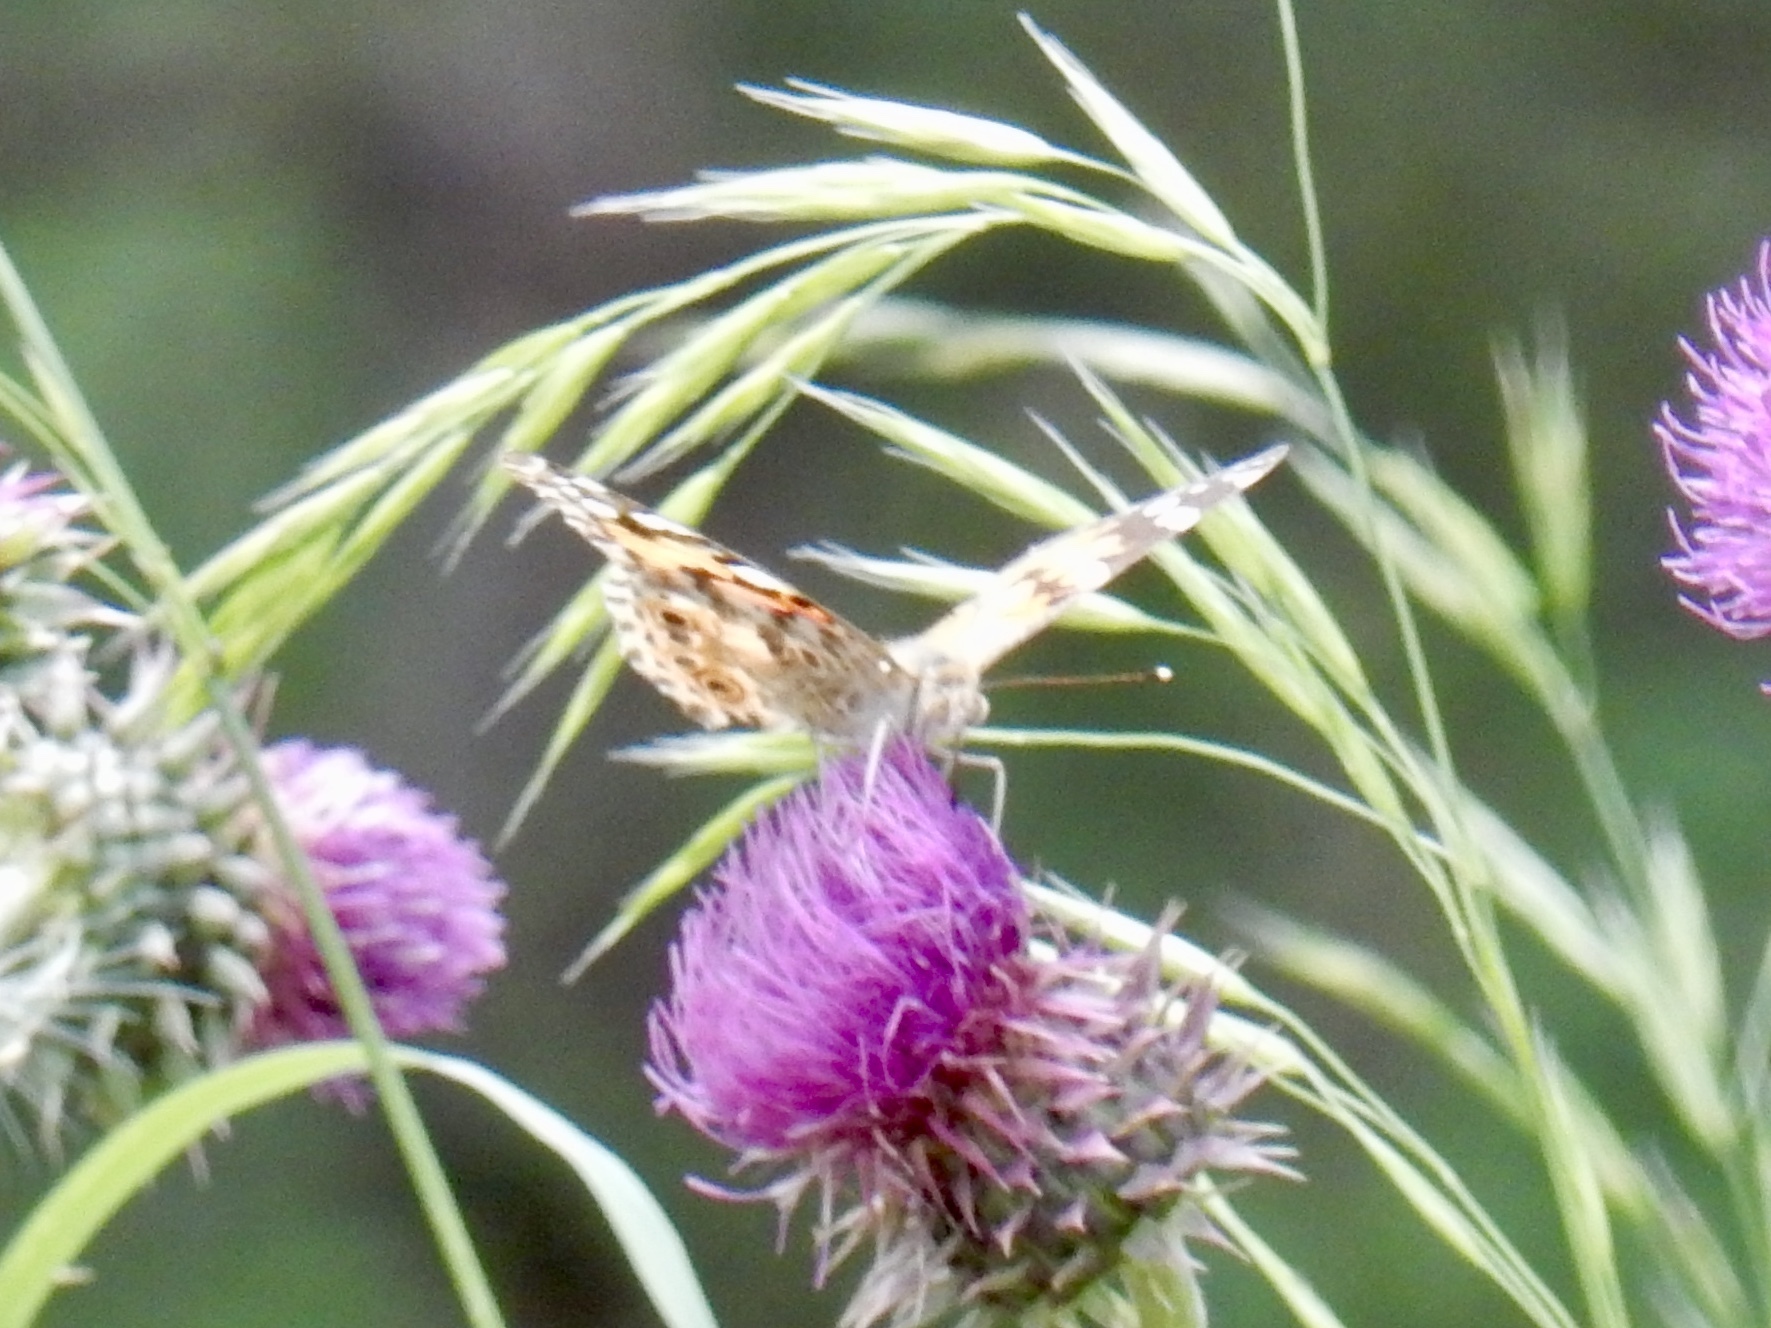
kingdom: Animalia
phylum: Arthropoda
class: Insecta
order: Lepidoptera
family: Nymphalidae
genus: Vanessa
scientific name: Vanessa cardui
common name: Painted lady
